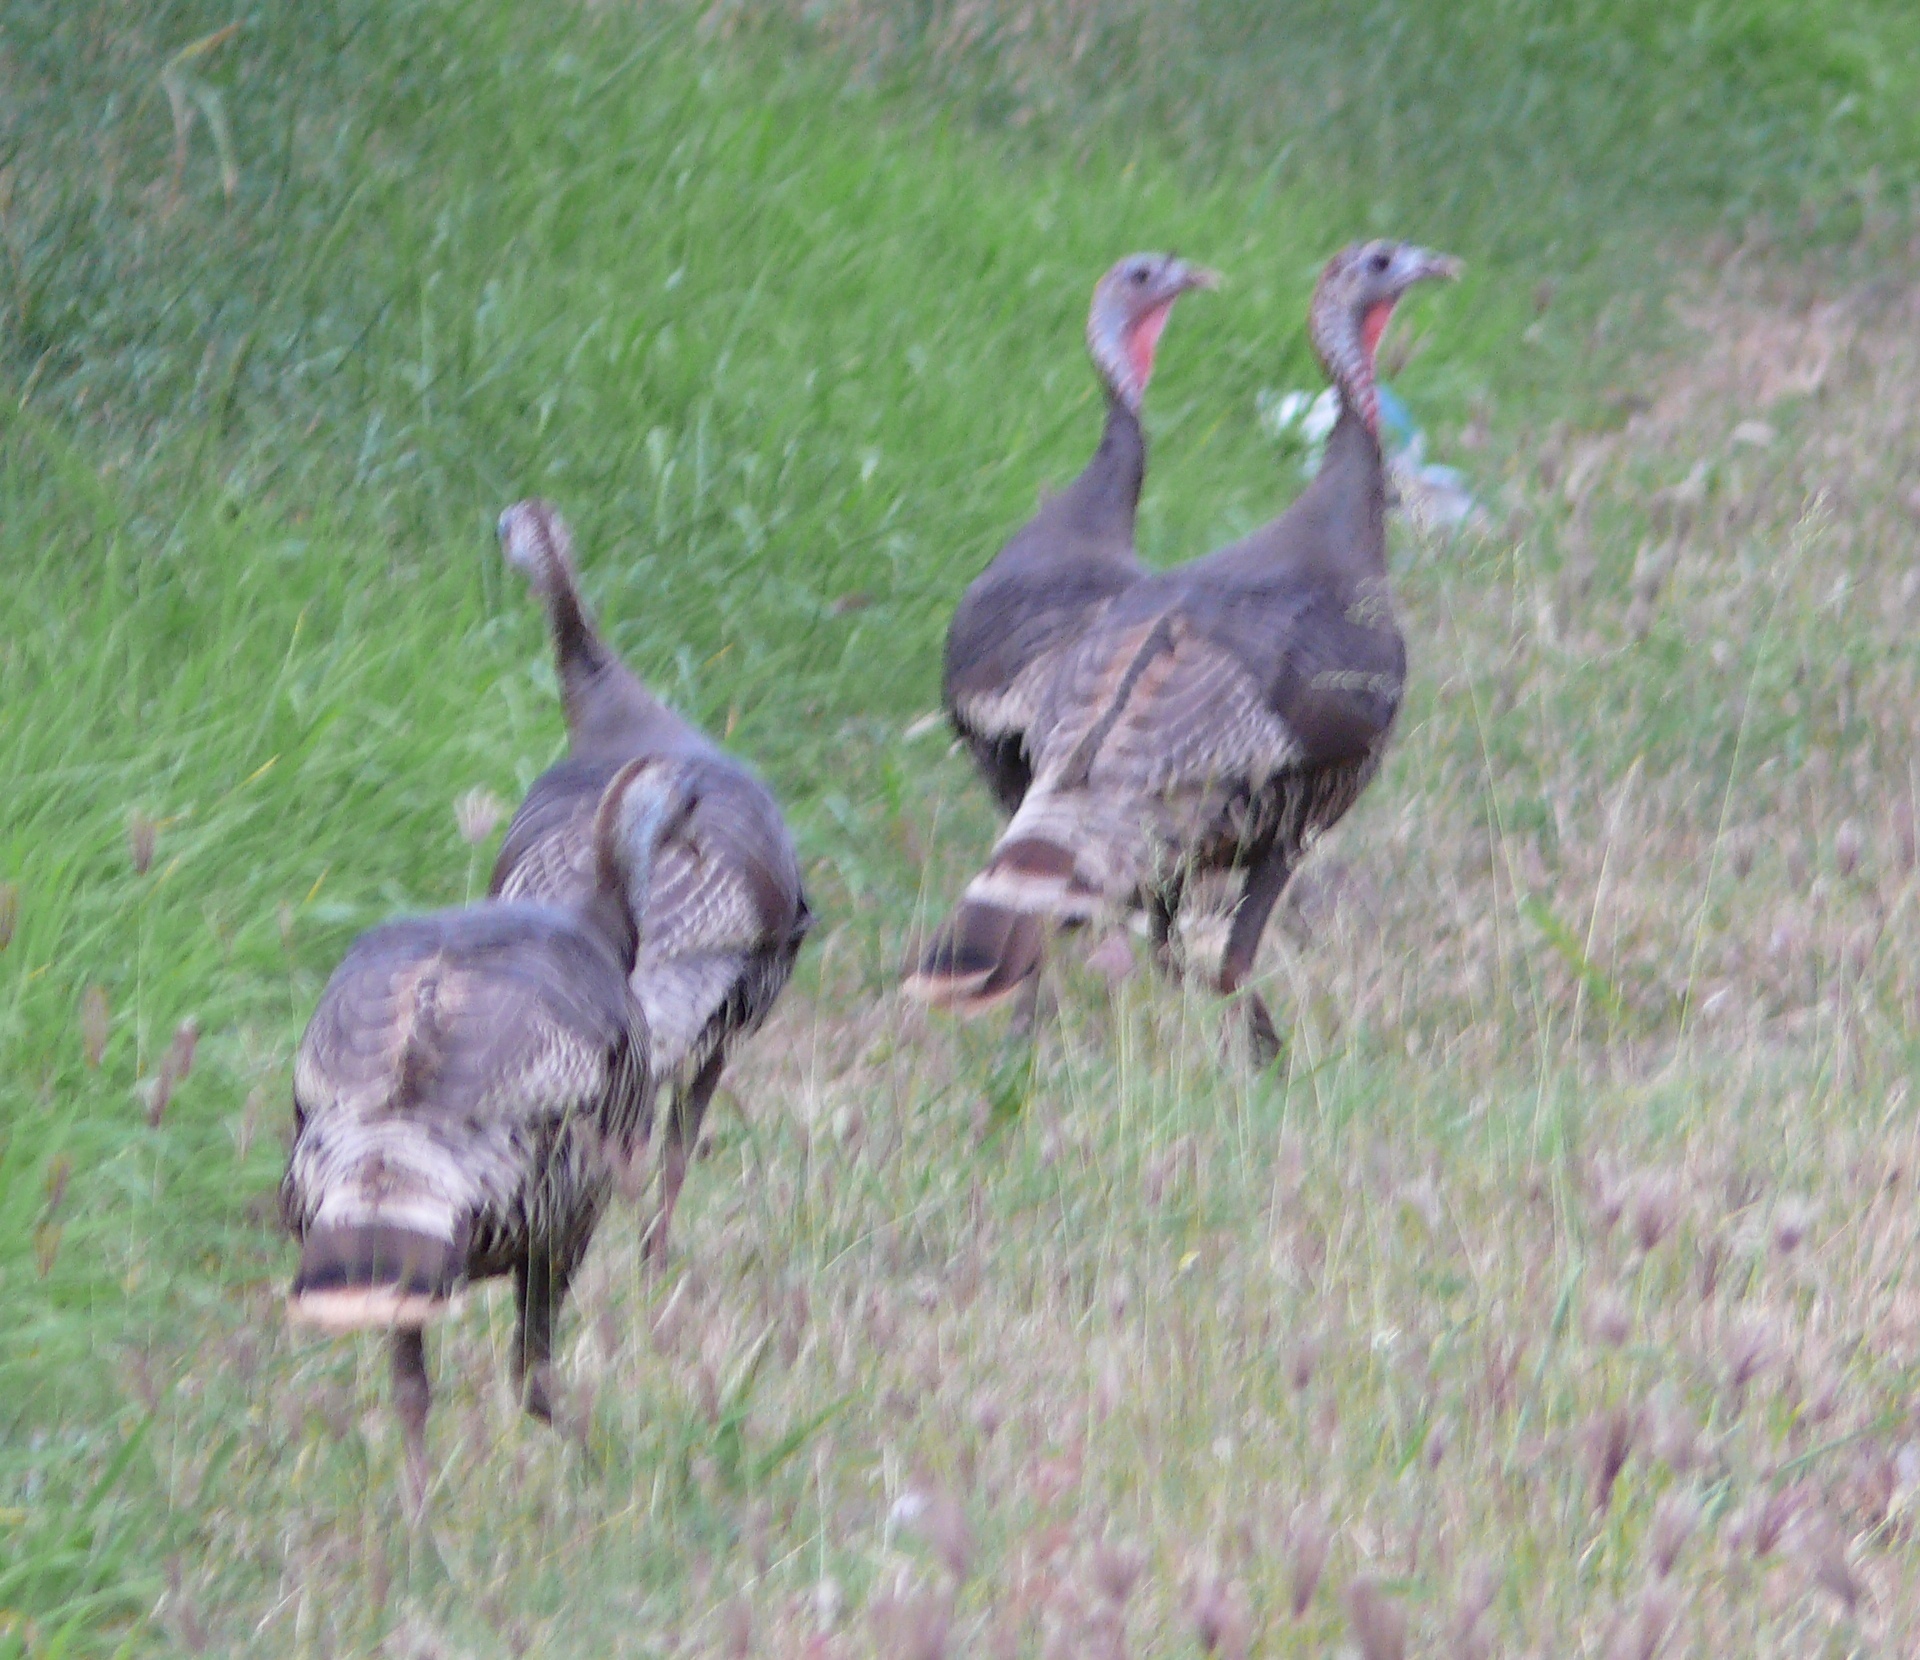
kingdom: Animalia
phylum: Chordata
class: Aves
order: Galliformes
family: Phasianidae
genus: Meleagris
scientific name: Meleagris gallopavo
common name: Wild turkey
